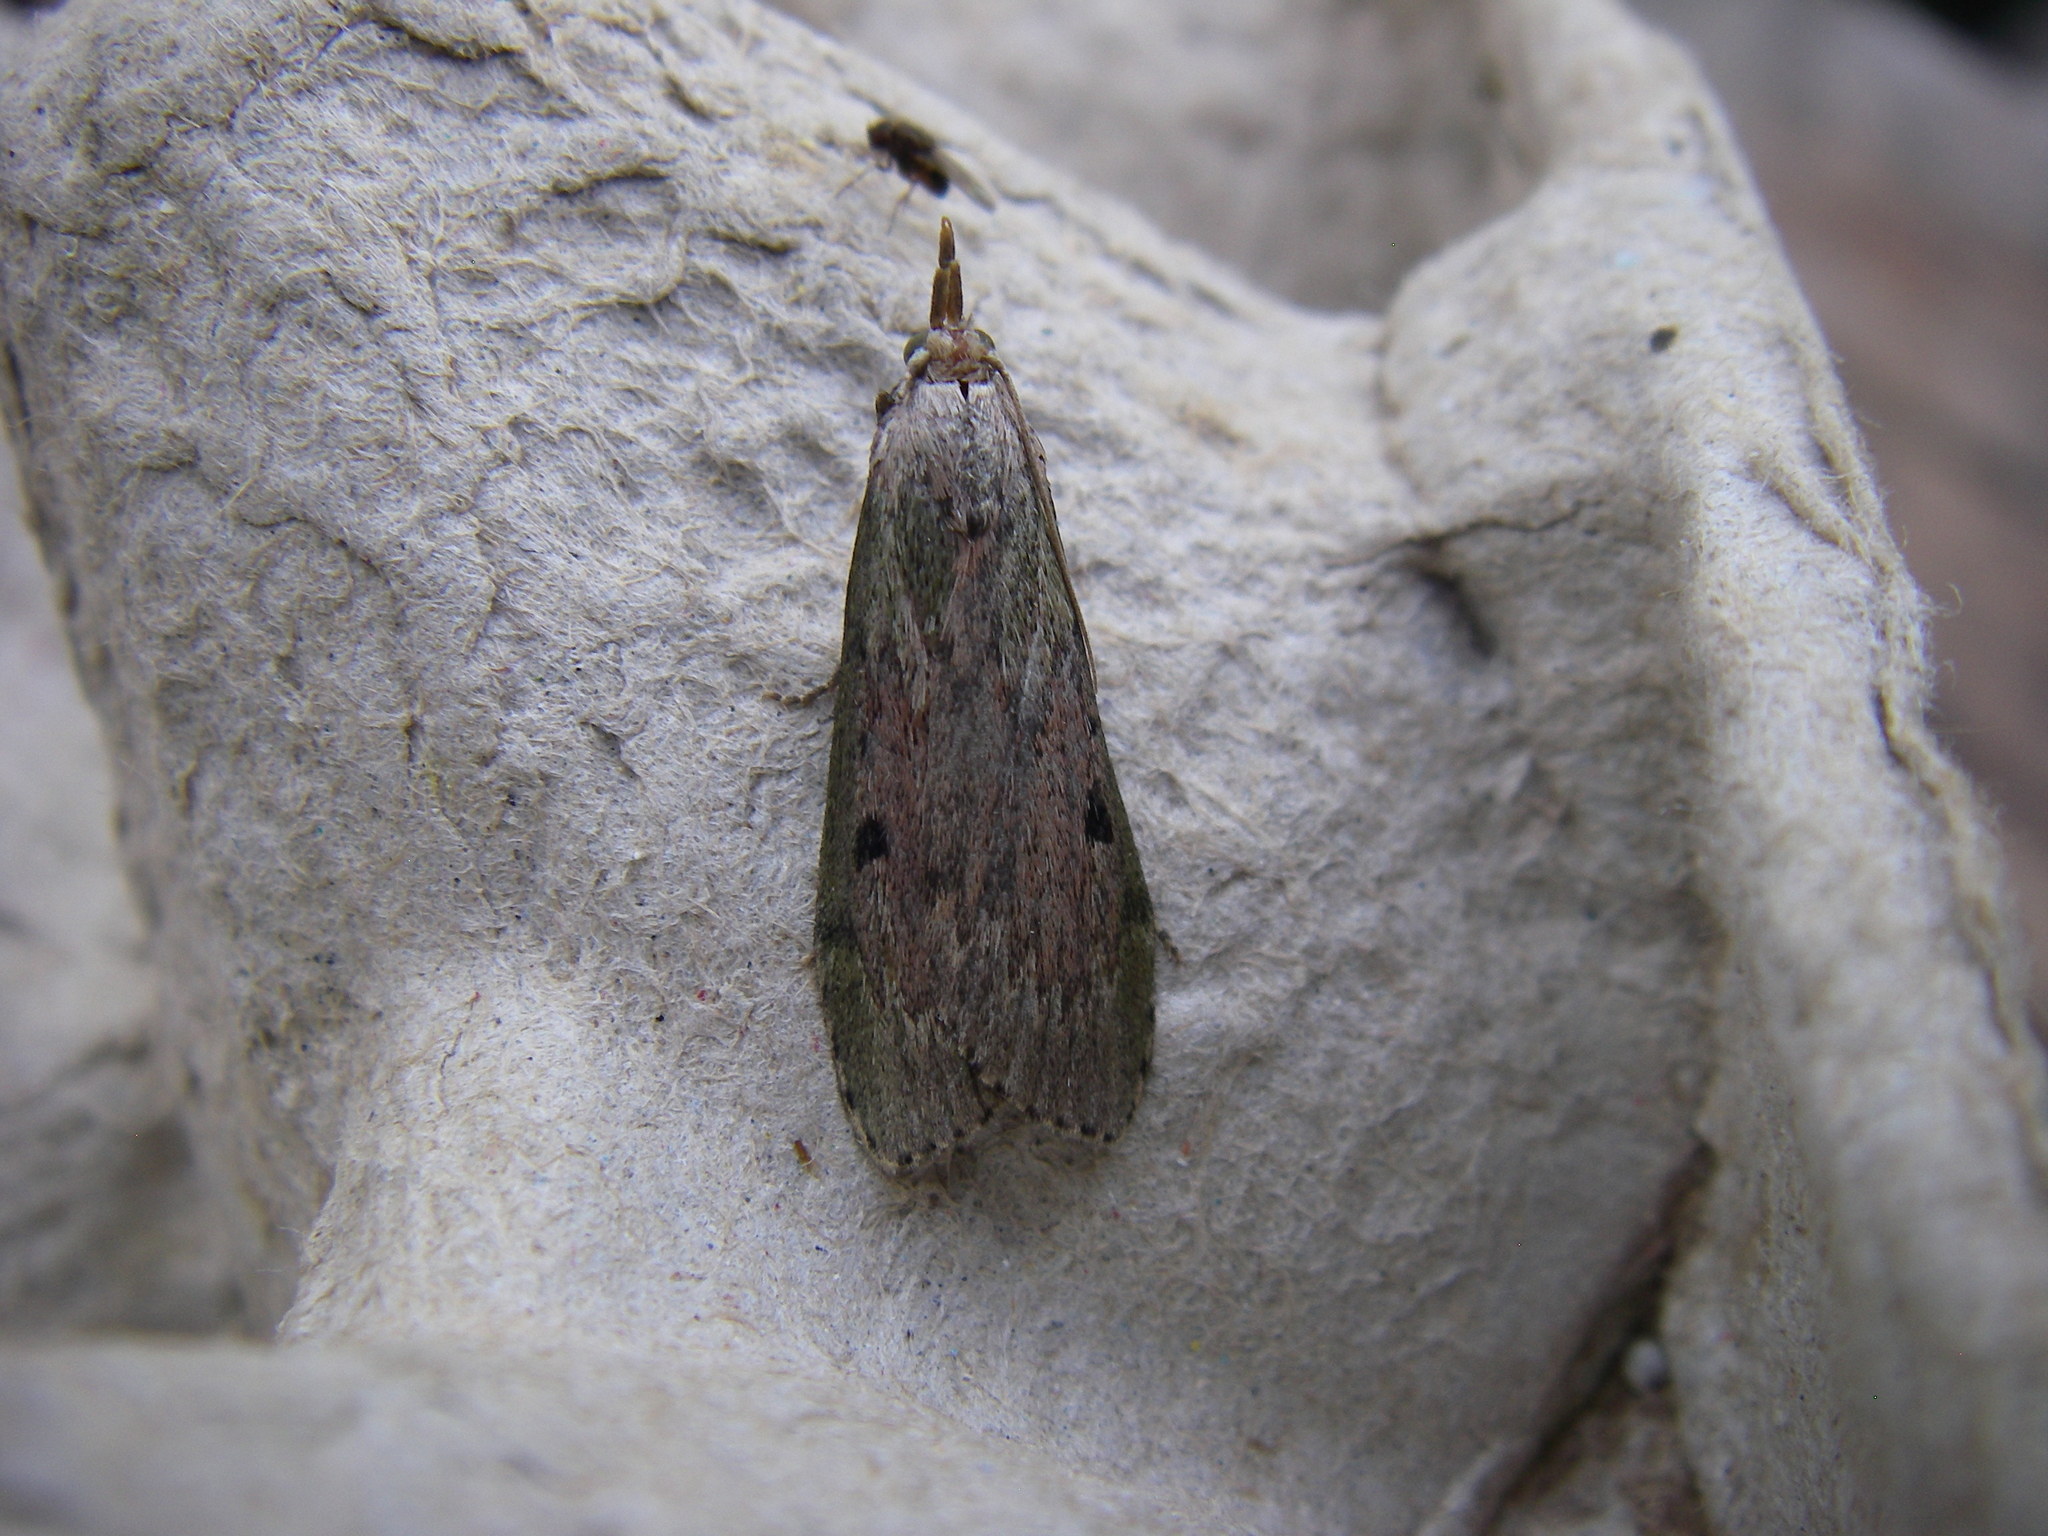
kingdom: Animalia
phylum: Arthropoda
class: Insecta
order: Lepidoptera
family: Pyralidae
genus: Aphomia
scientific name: Aphomia sociella
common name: Bee moth
